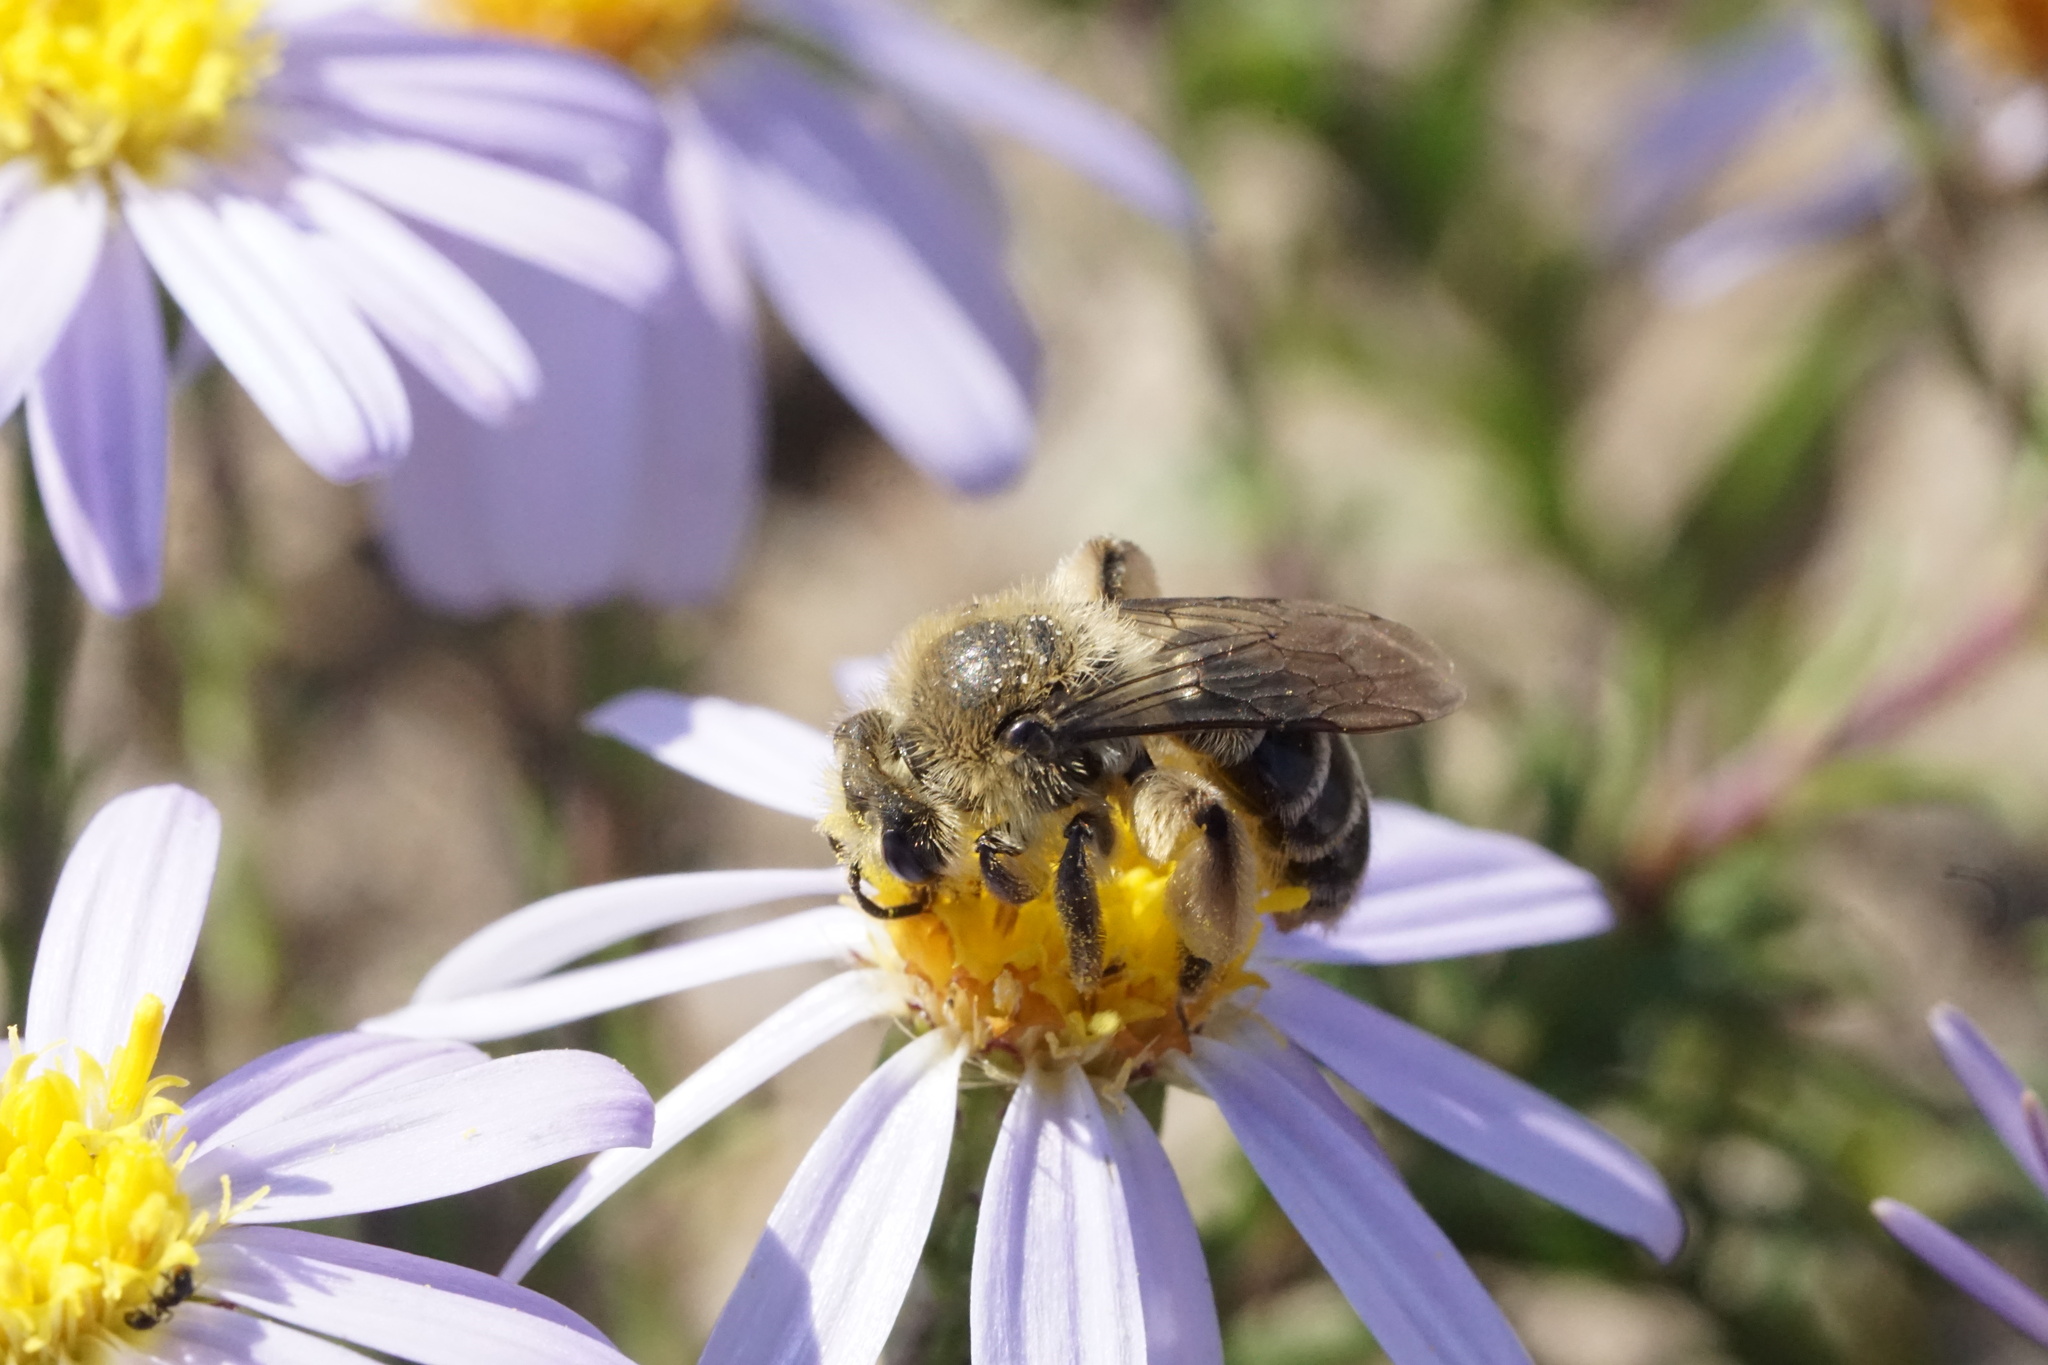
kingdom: Animalia
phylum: Arthropoda
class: Insecta
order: Hymenoptera
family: Andrenidae
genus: Andrena
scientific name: Andrena asteris
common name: Aster mining bee
